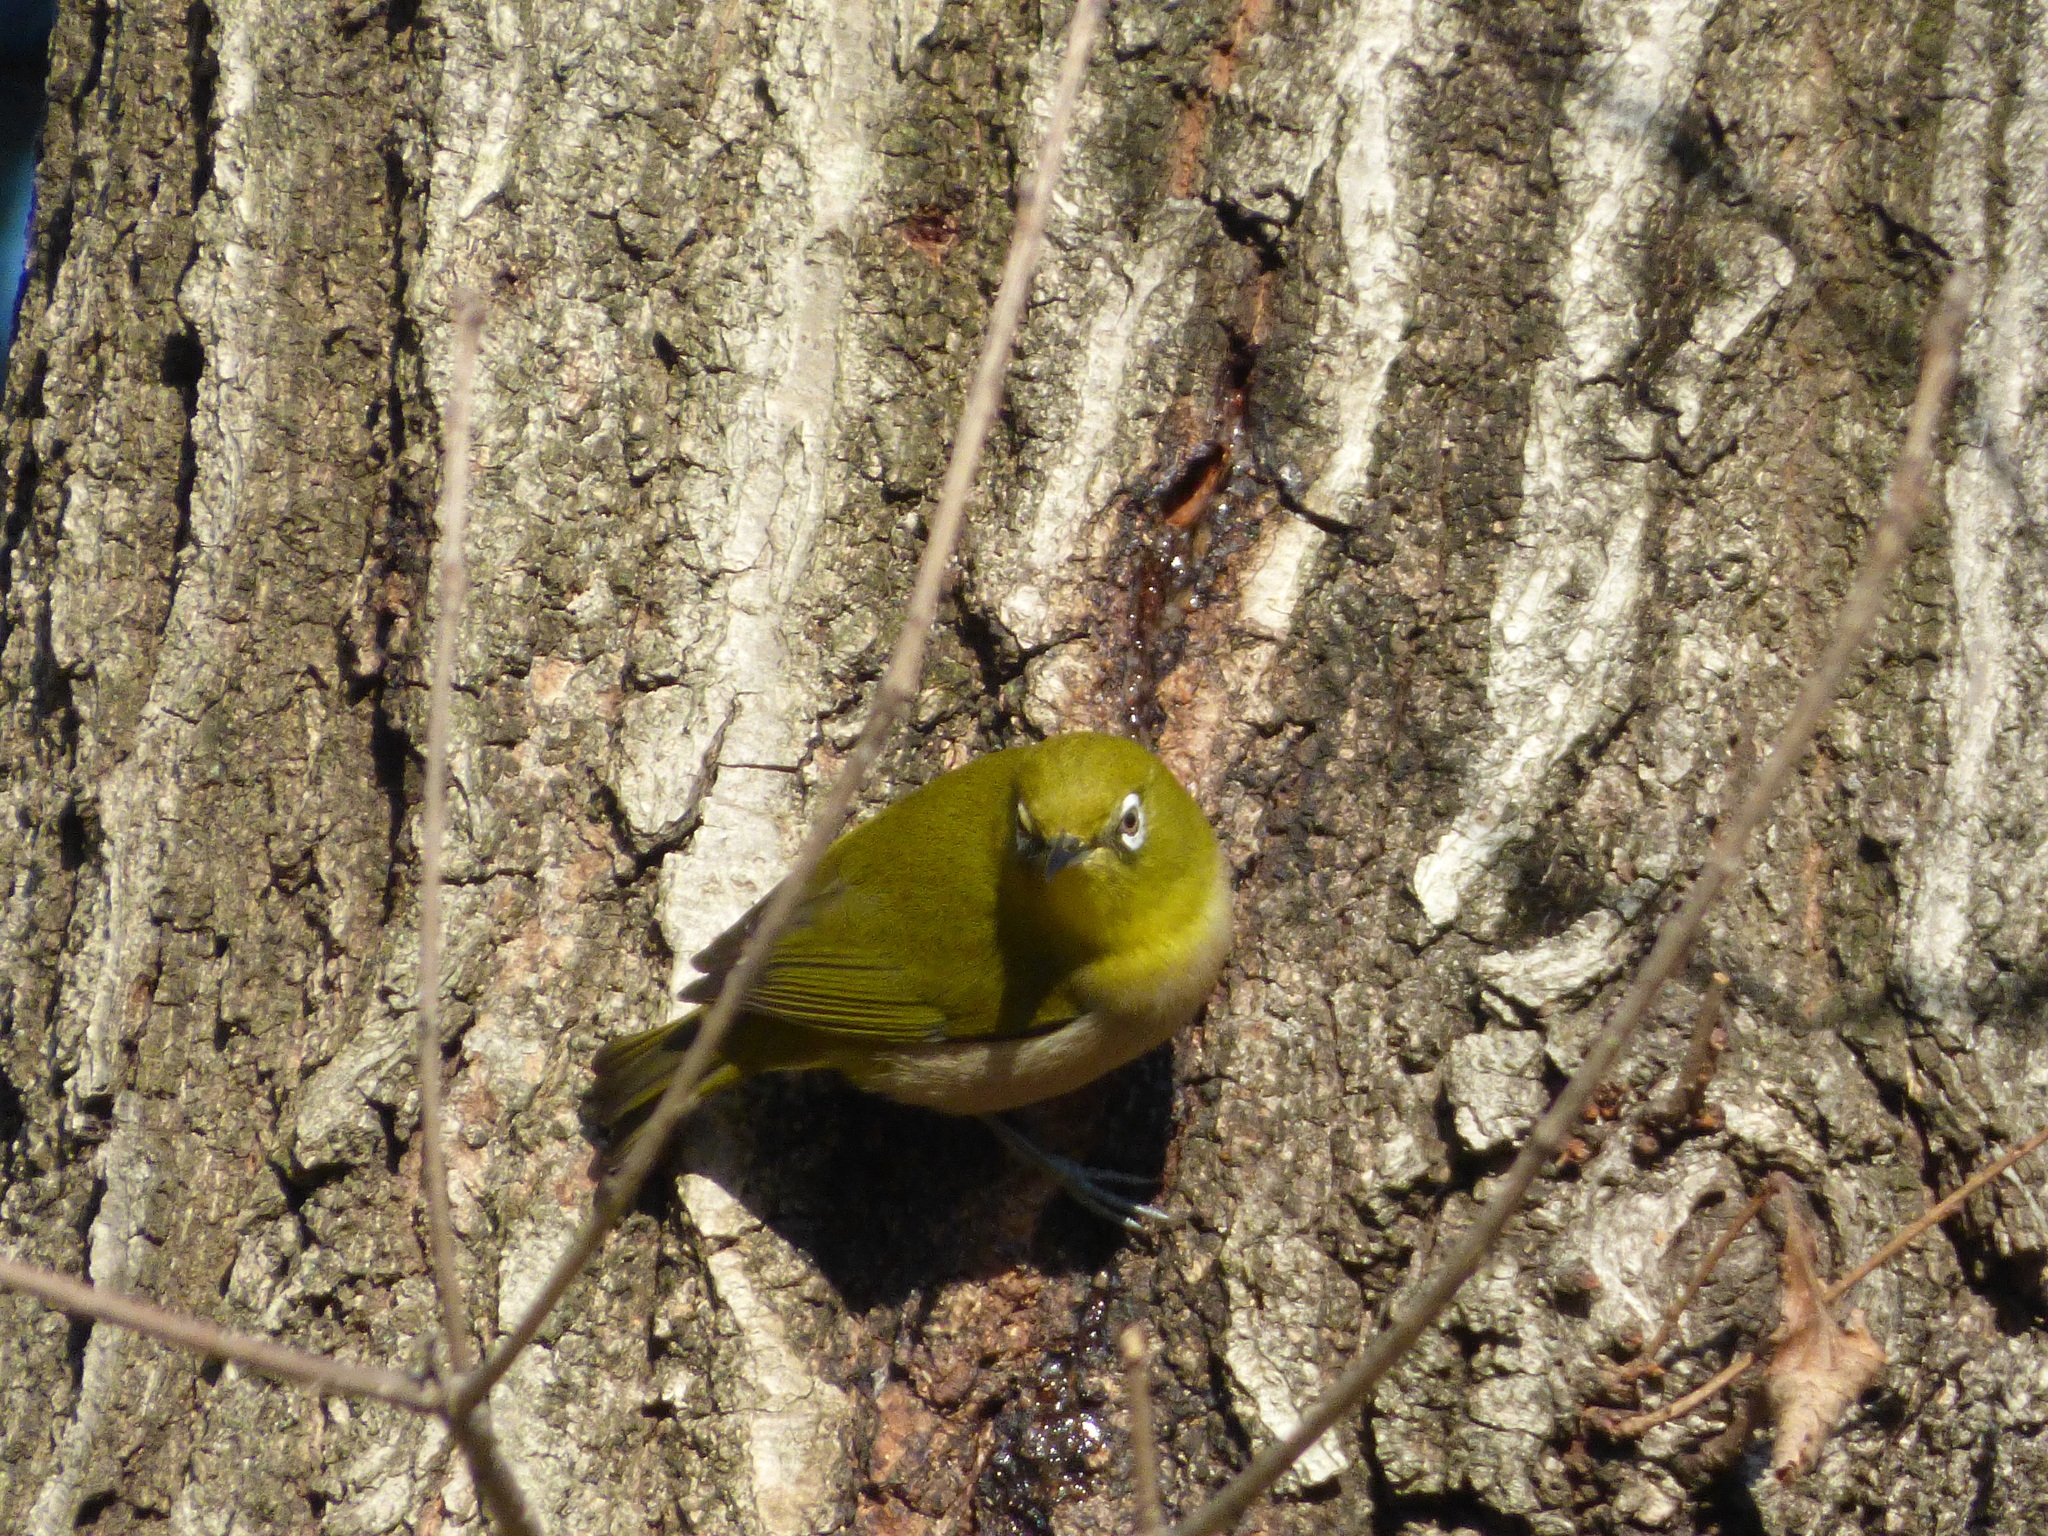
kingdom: Animalia
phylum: Chordata
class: Aves
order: Passeriformes
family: Zosteropidae
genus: Zosterops
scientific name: Zosterops japonicus
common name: Japanese white-eye
